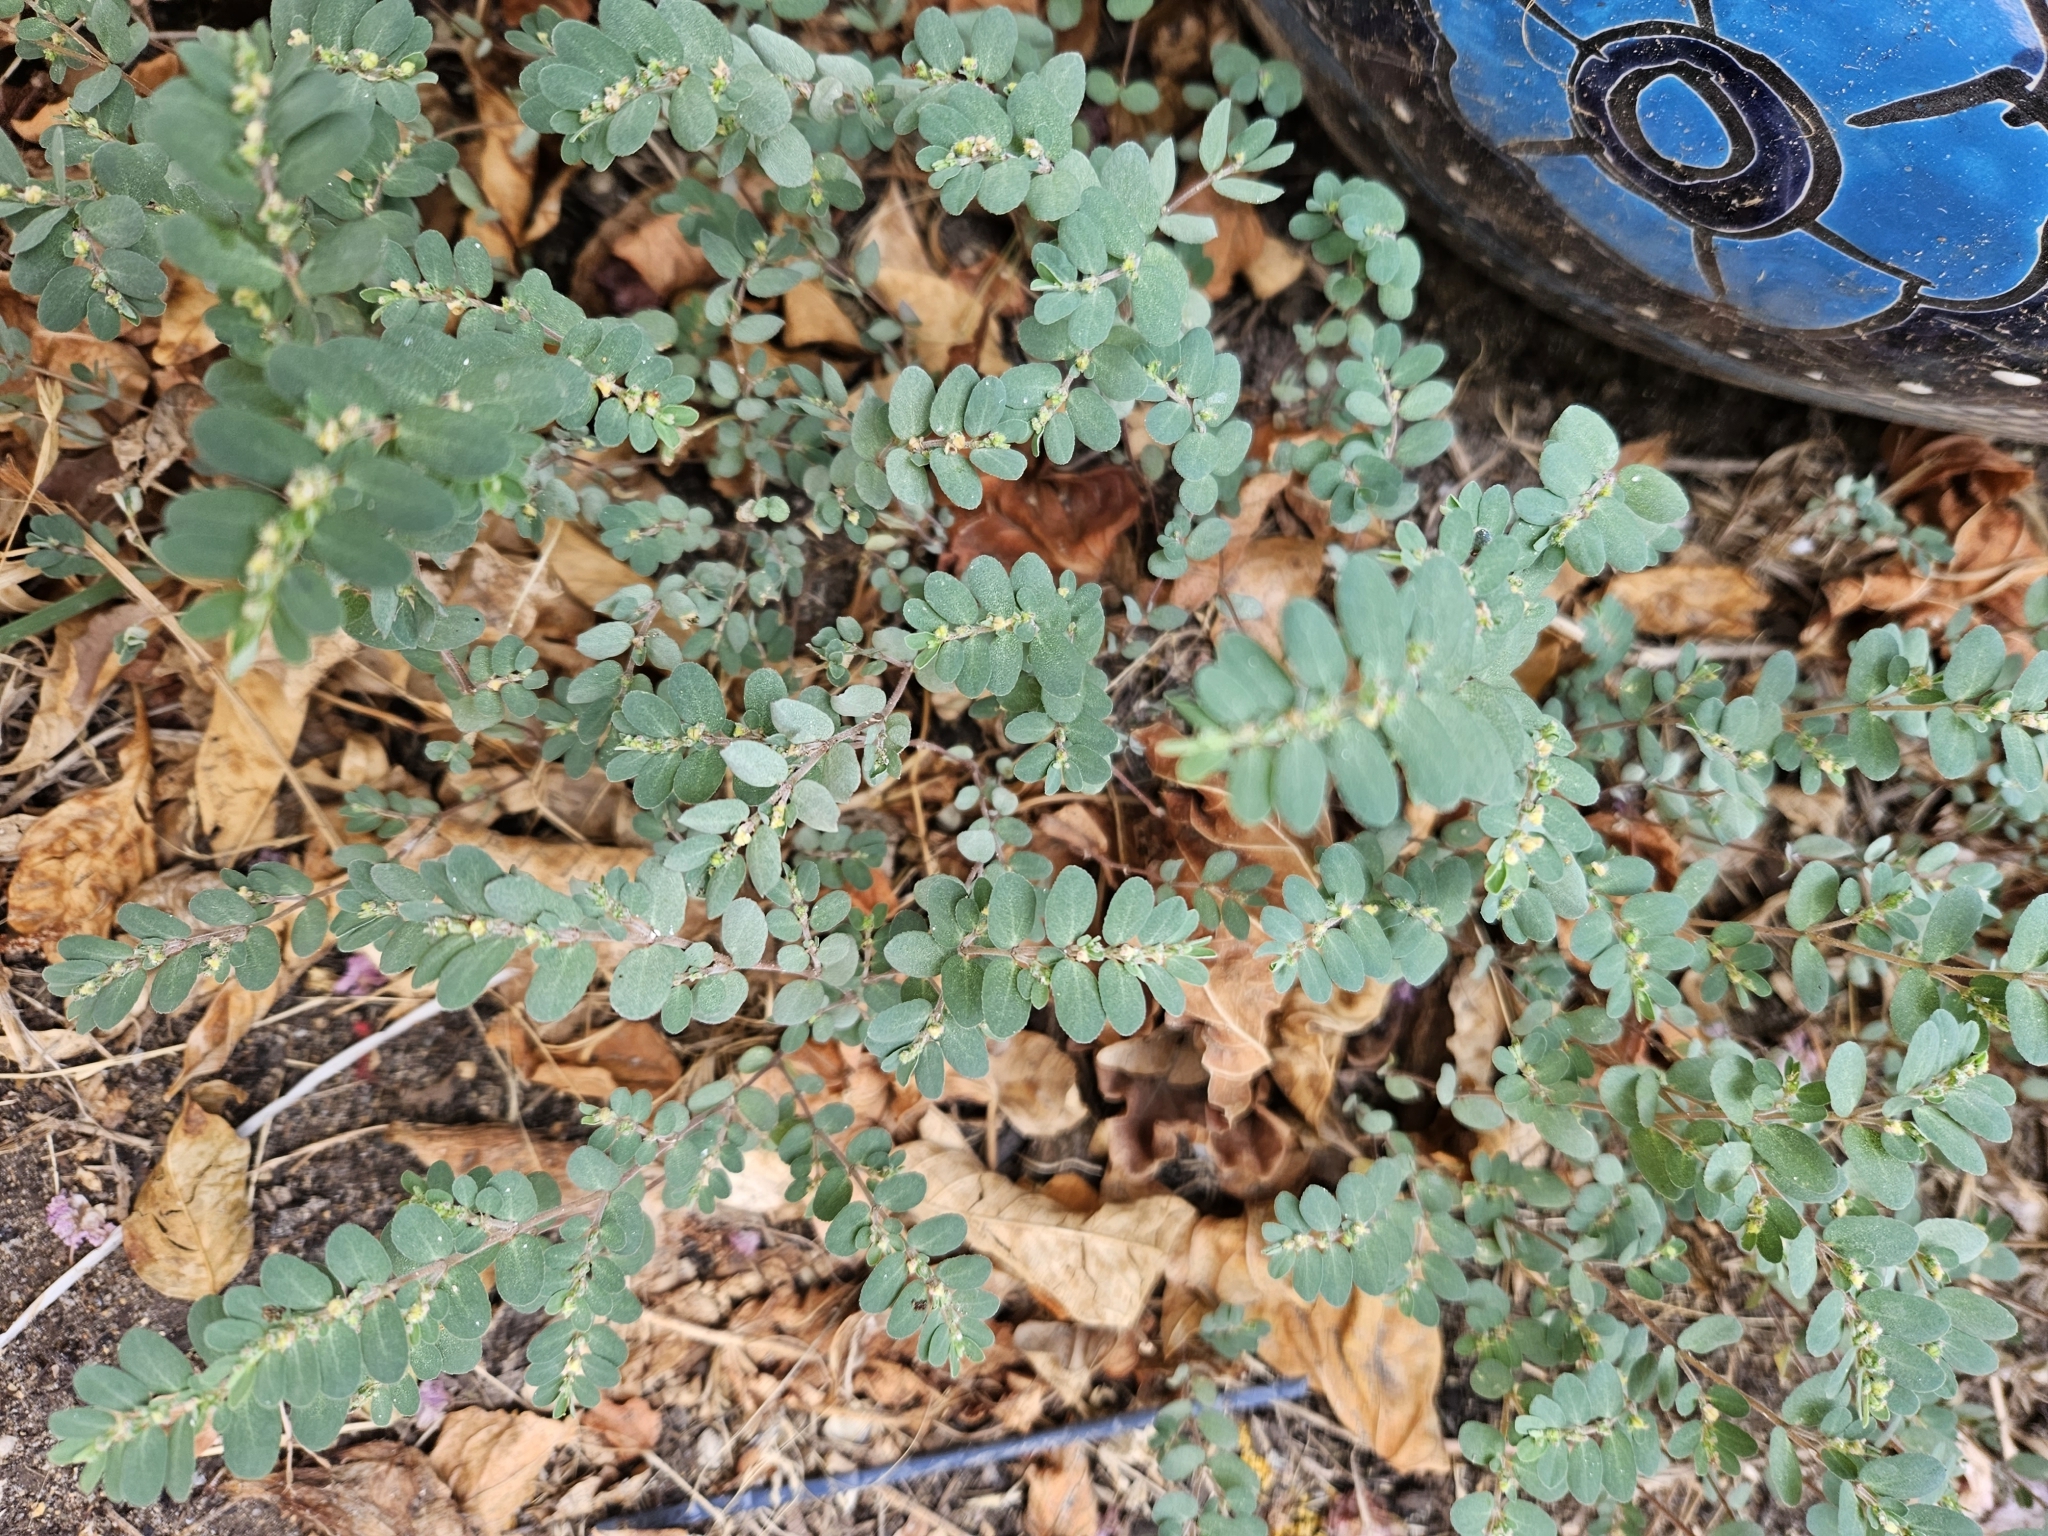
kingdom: Plantae
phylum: Tracheophyta
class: Magnoliopsida
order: Malpighiales
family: Euphorbiaceae
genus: Euphorbia
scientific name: Euphorbia prostrata
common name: Prostrate sandmat
